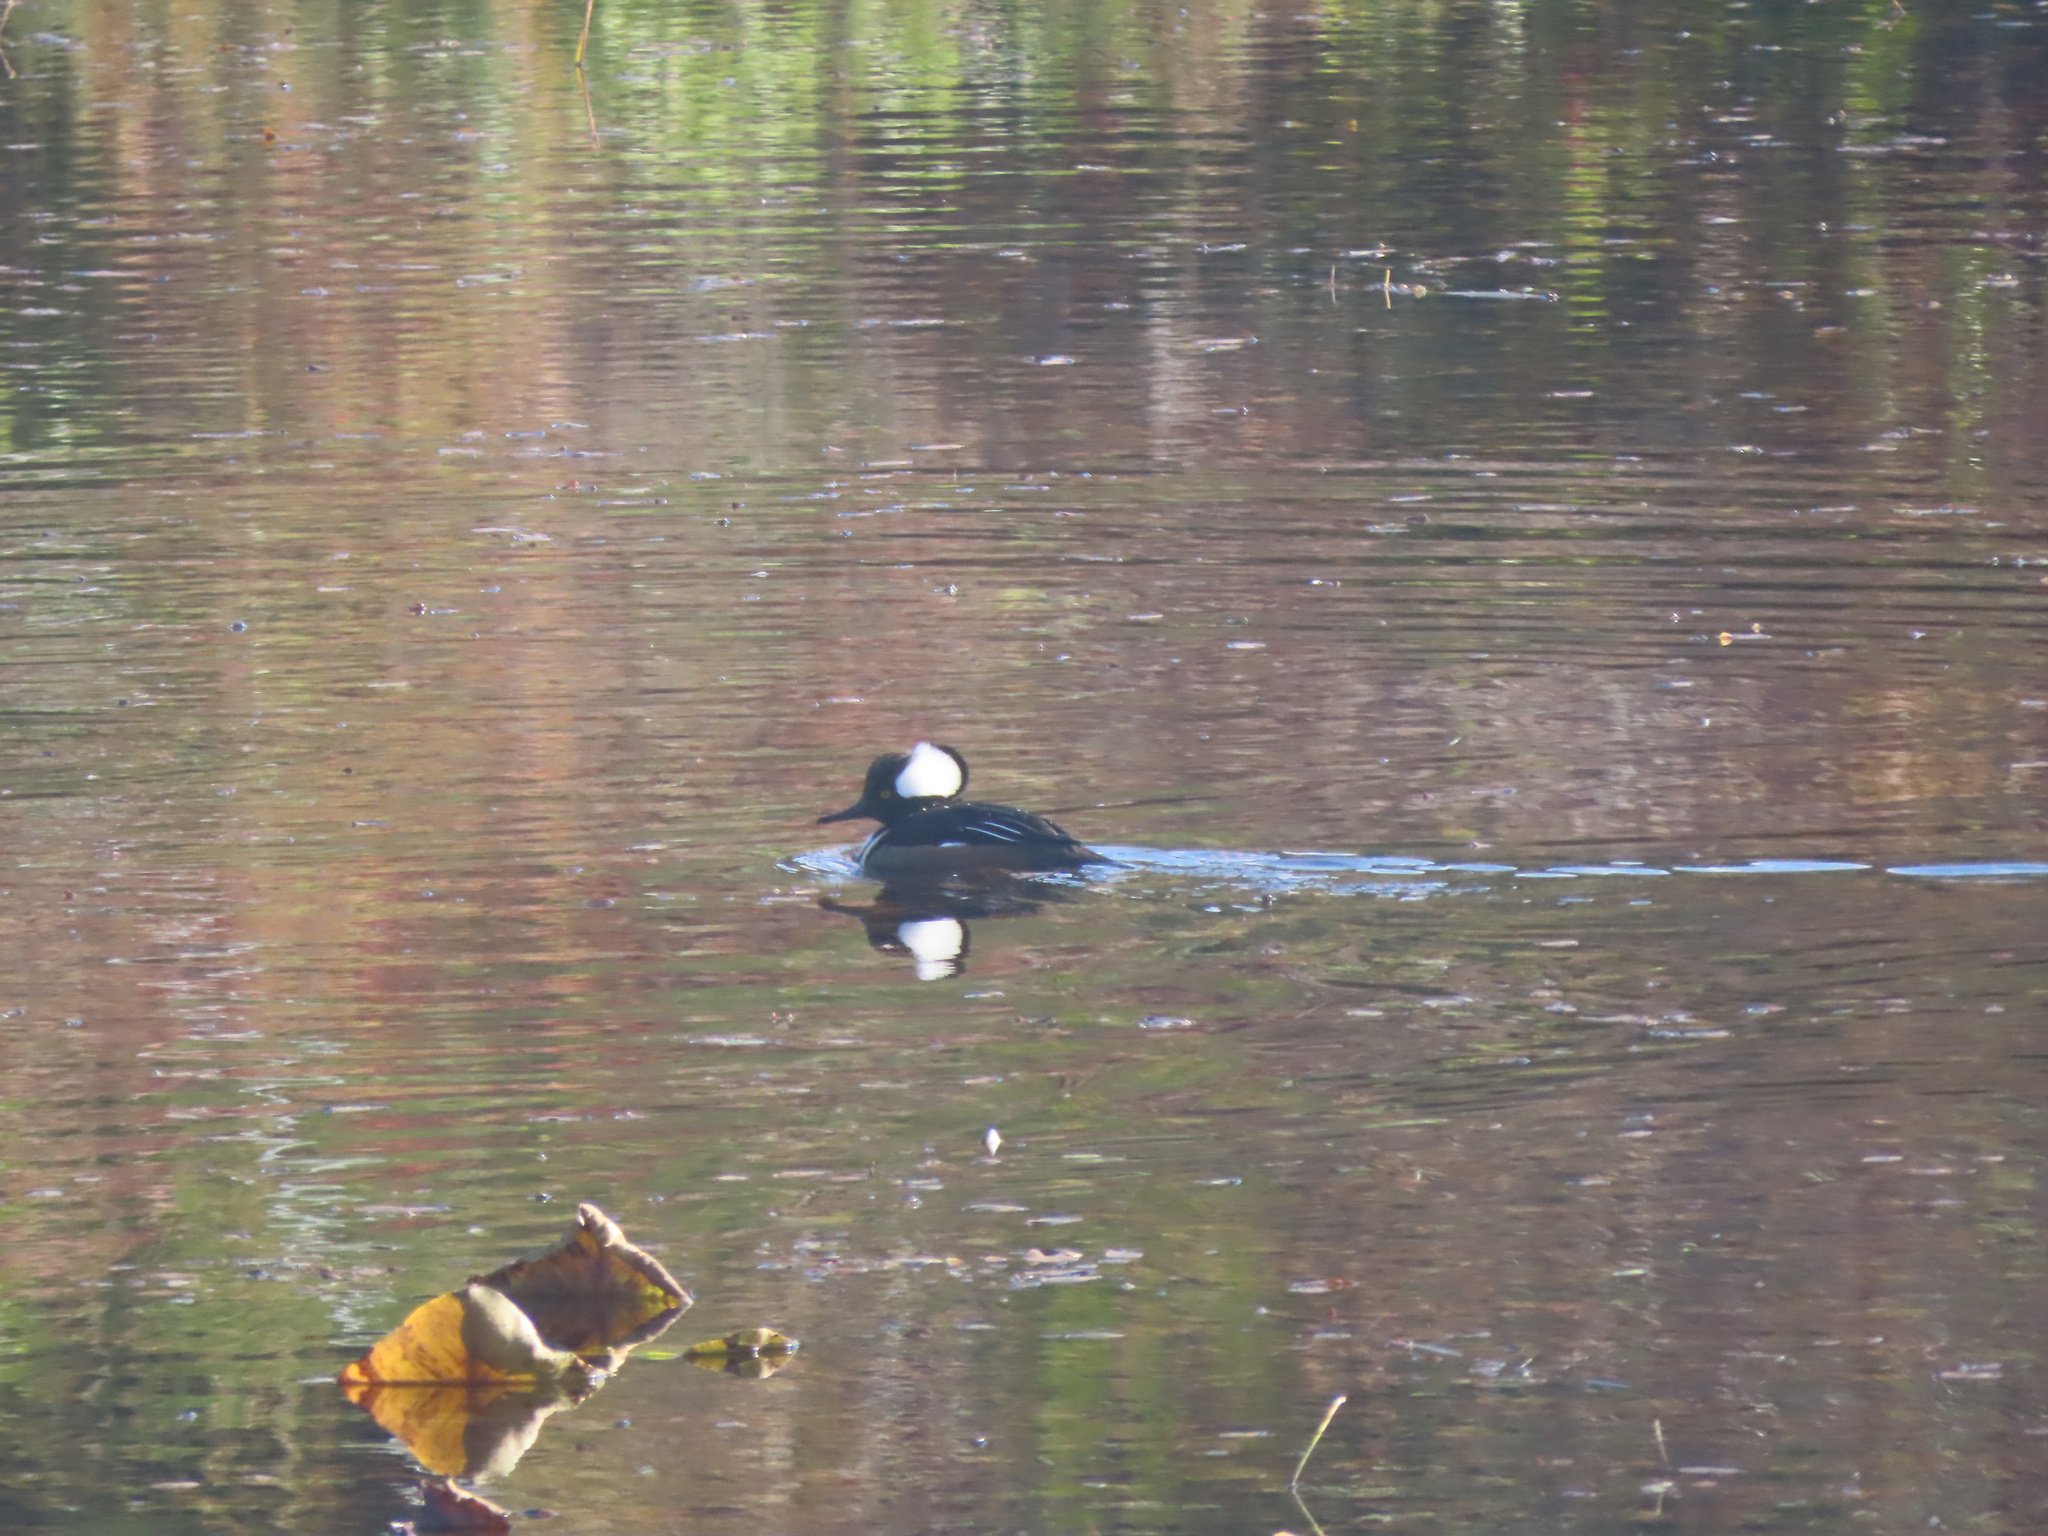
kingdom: Animalia
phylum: Chordata
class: Aves
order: Anseriformes
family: Anatidae
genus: Lophodytes
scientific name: Lophodytes cucullatus
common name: Hooded merganser
